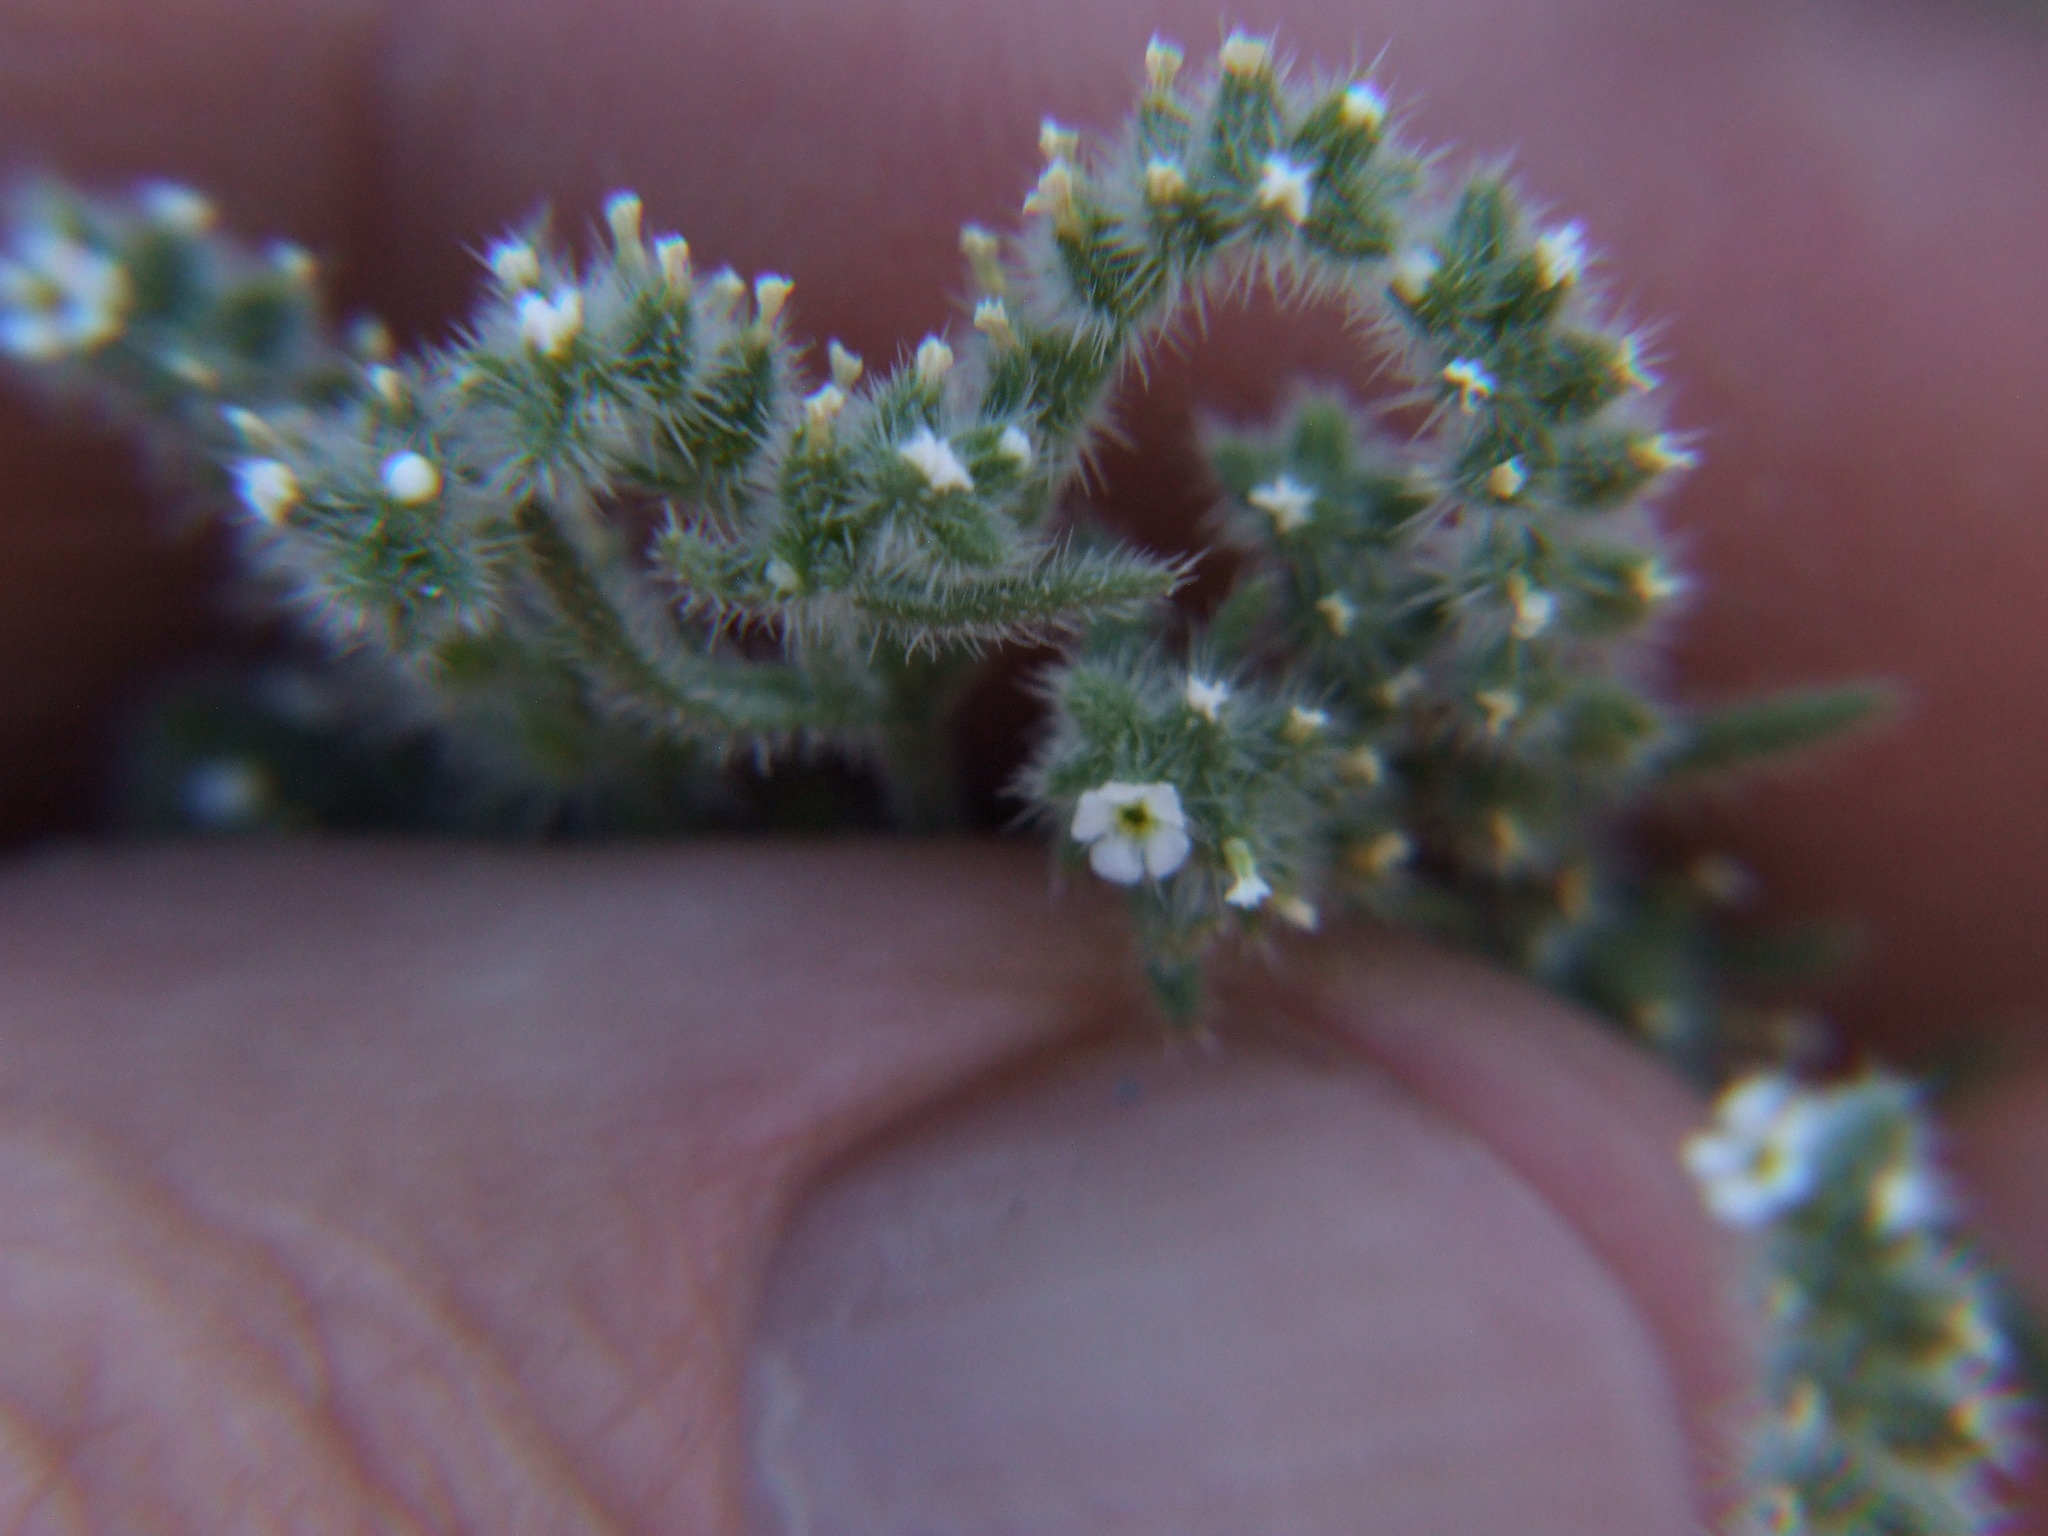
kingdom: Plantae
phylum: Tracheophyta
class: Magnoliopsida
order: Boraginales
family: Boraginaceae
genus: Johnstonella
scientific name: Johnstonella parviflora
